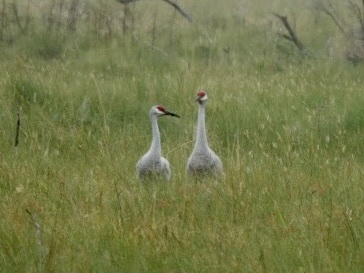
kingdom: Animalia
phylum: Chordata
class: Aves
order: Gruiformes
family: Gruidae
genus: Grus
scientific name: Grus canadensis
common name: Sandhill crane
